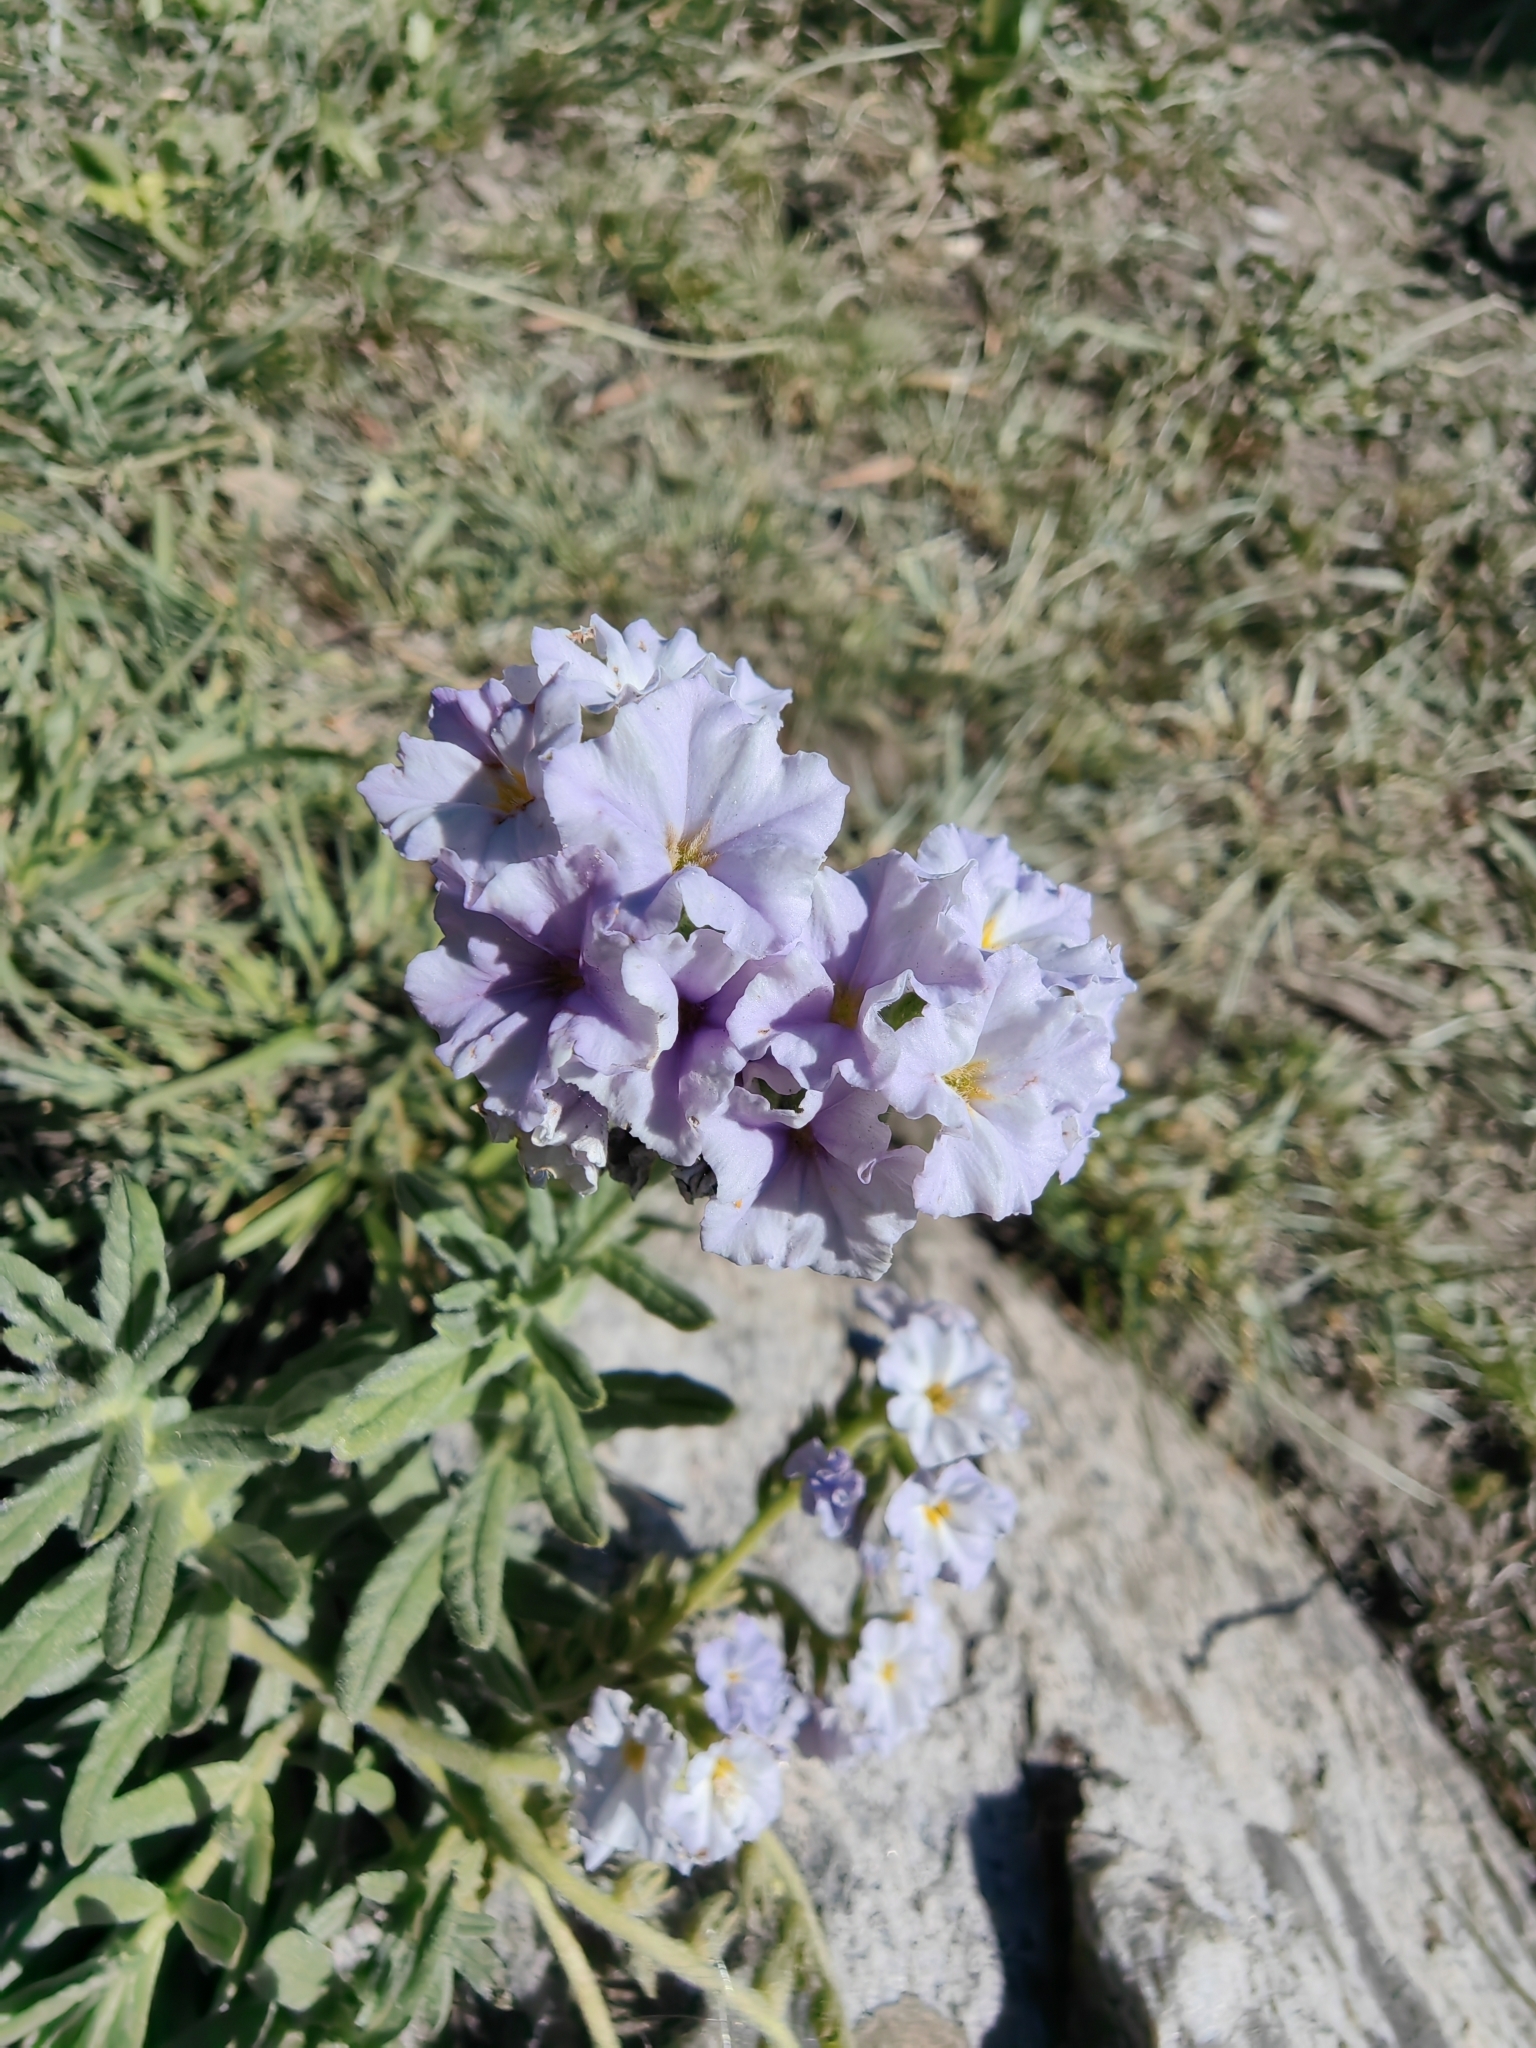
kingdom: Plantae
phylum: Tracheophyta
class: Magnoliopsida
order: Boraginales
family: Heliotropiaceae
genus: Heliotropium
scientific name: Heliotropium amplexicaule
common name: Clasping heliotrope
